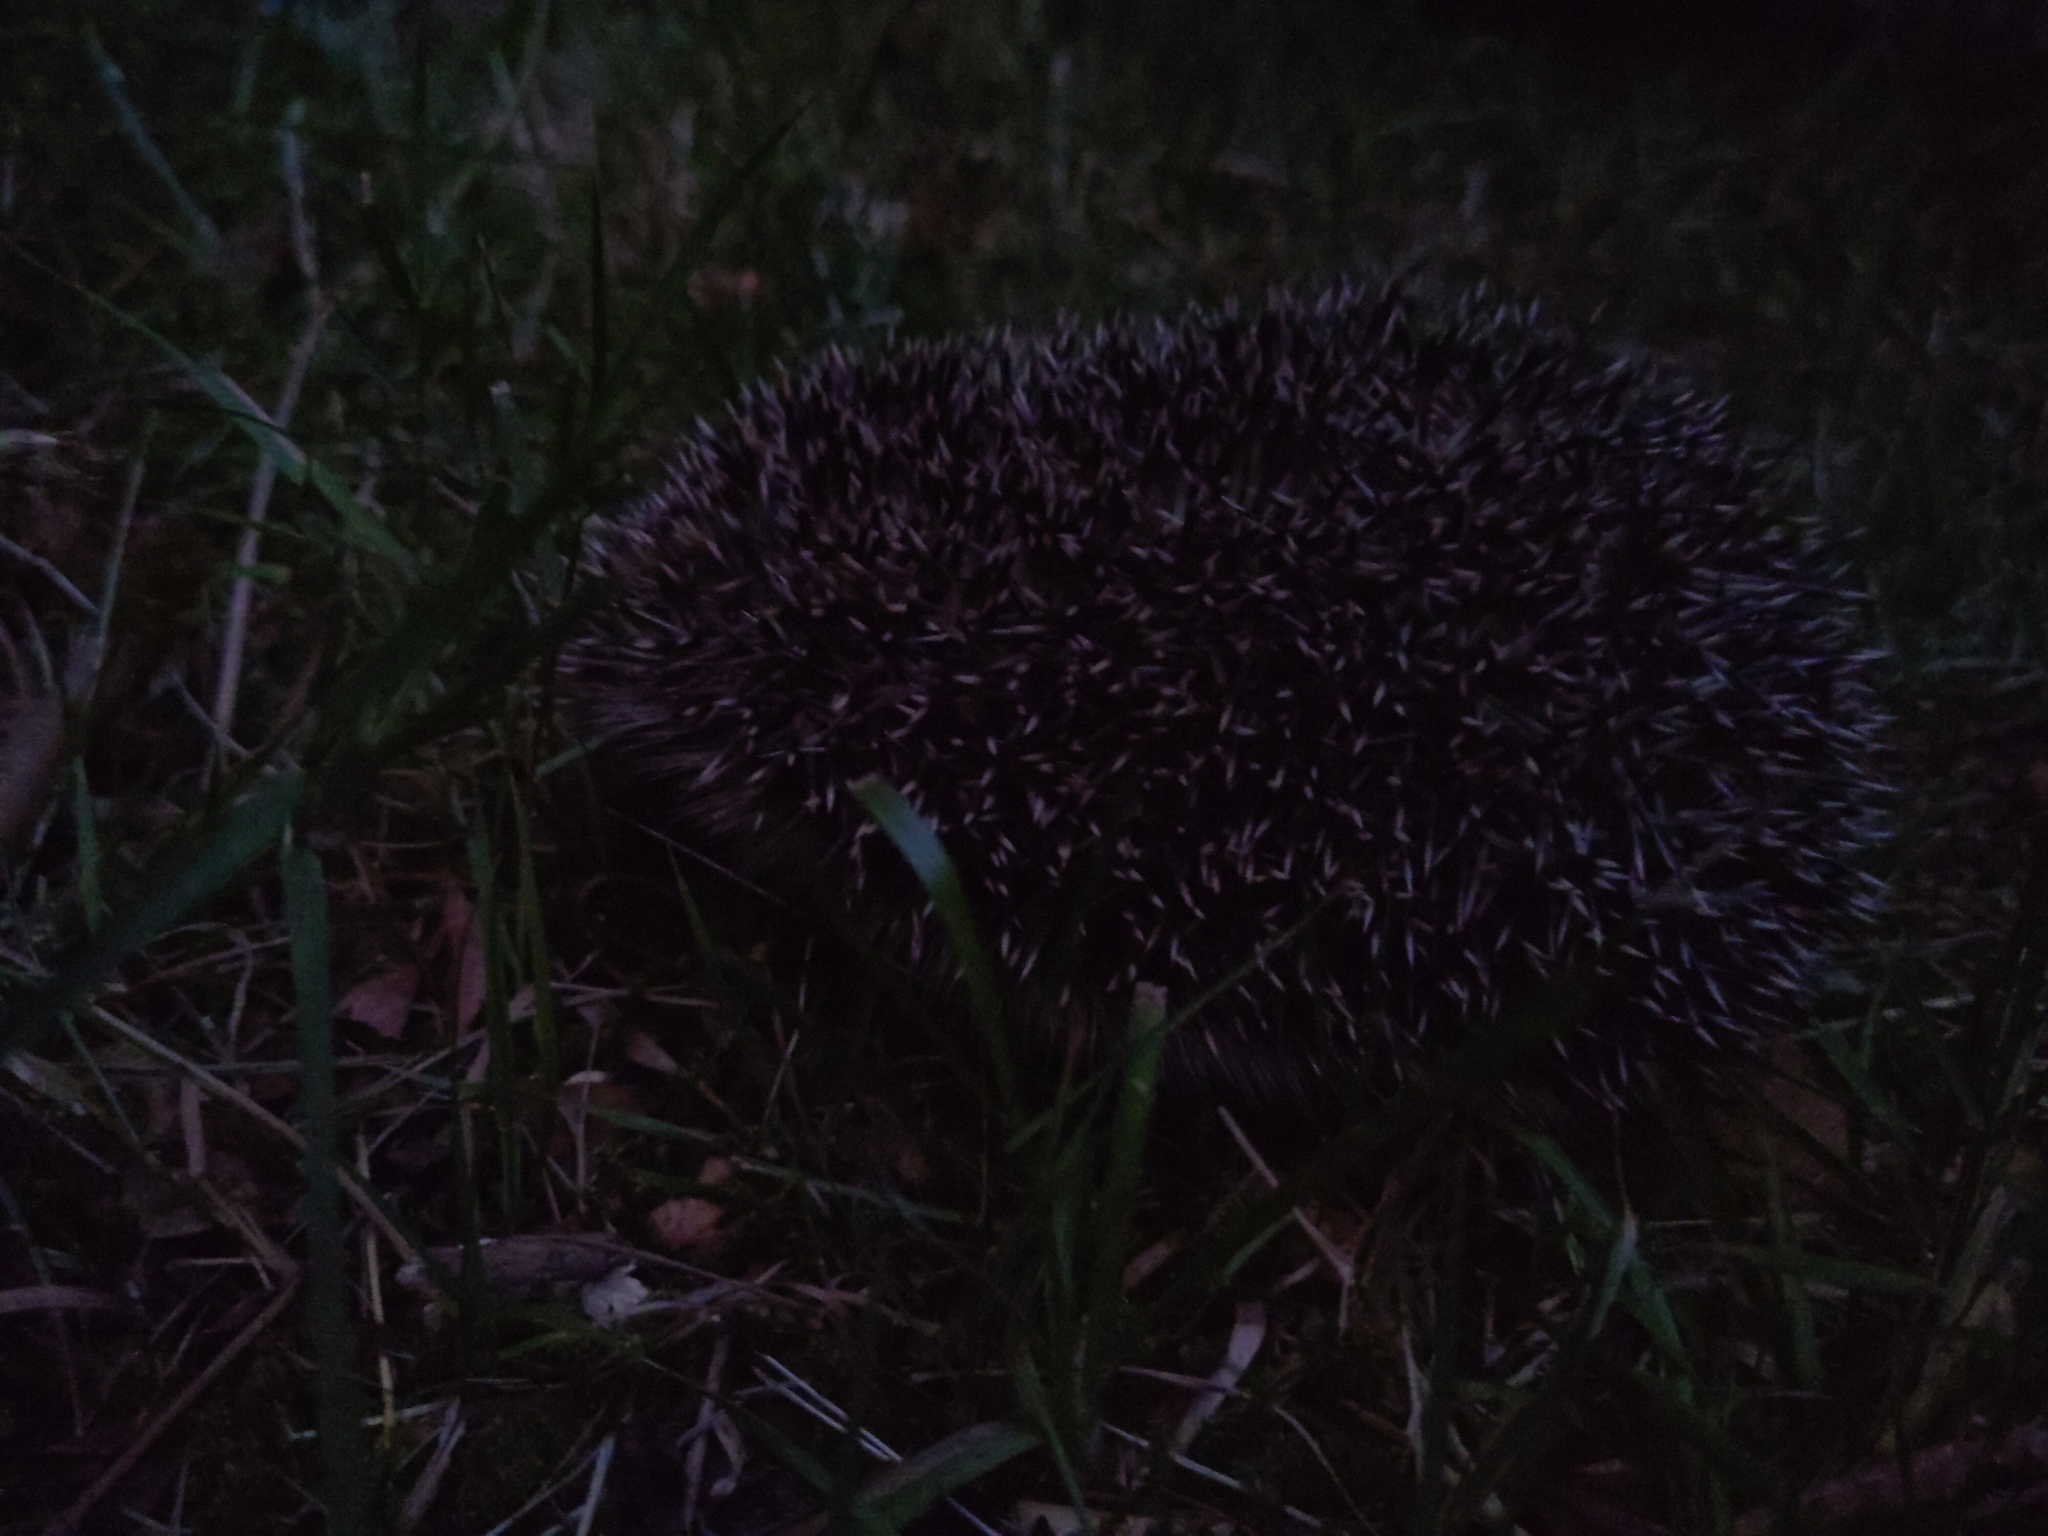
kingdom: Animalia
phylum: Chordata
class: Mammalia
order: Erinaceomorpha
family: Erinaceidae
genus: Erinaceus
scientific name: Erinaceus europaeus
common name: West european hedgehog
